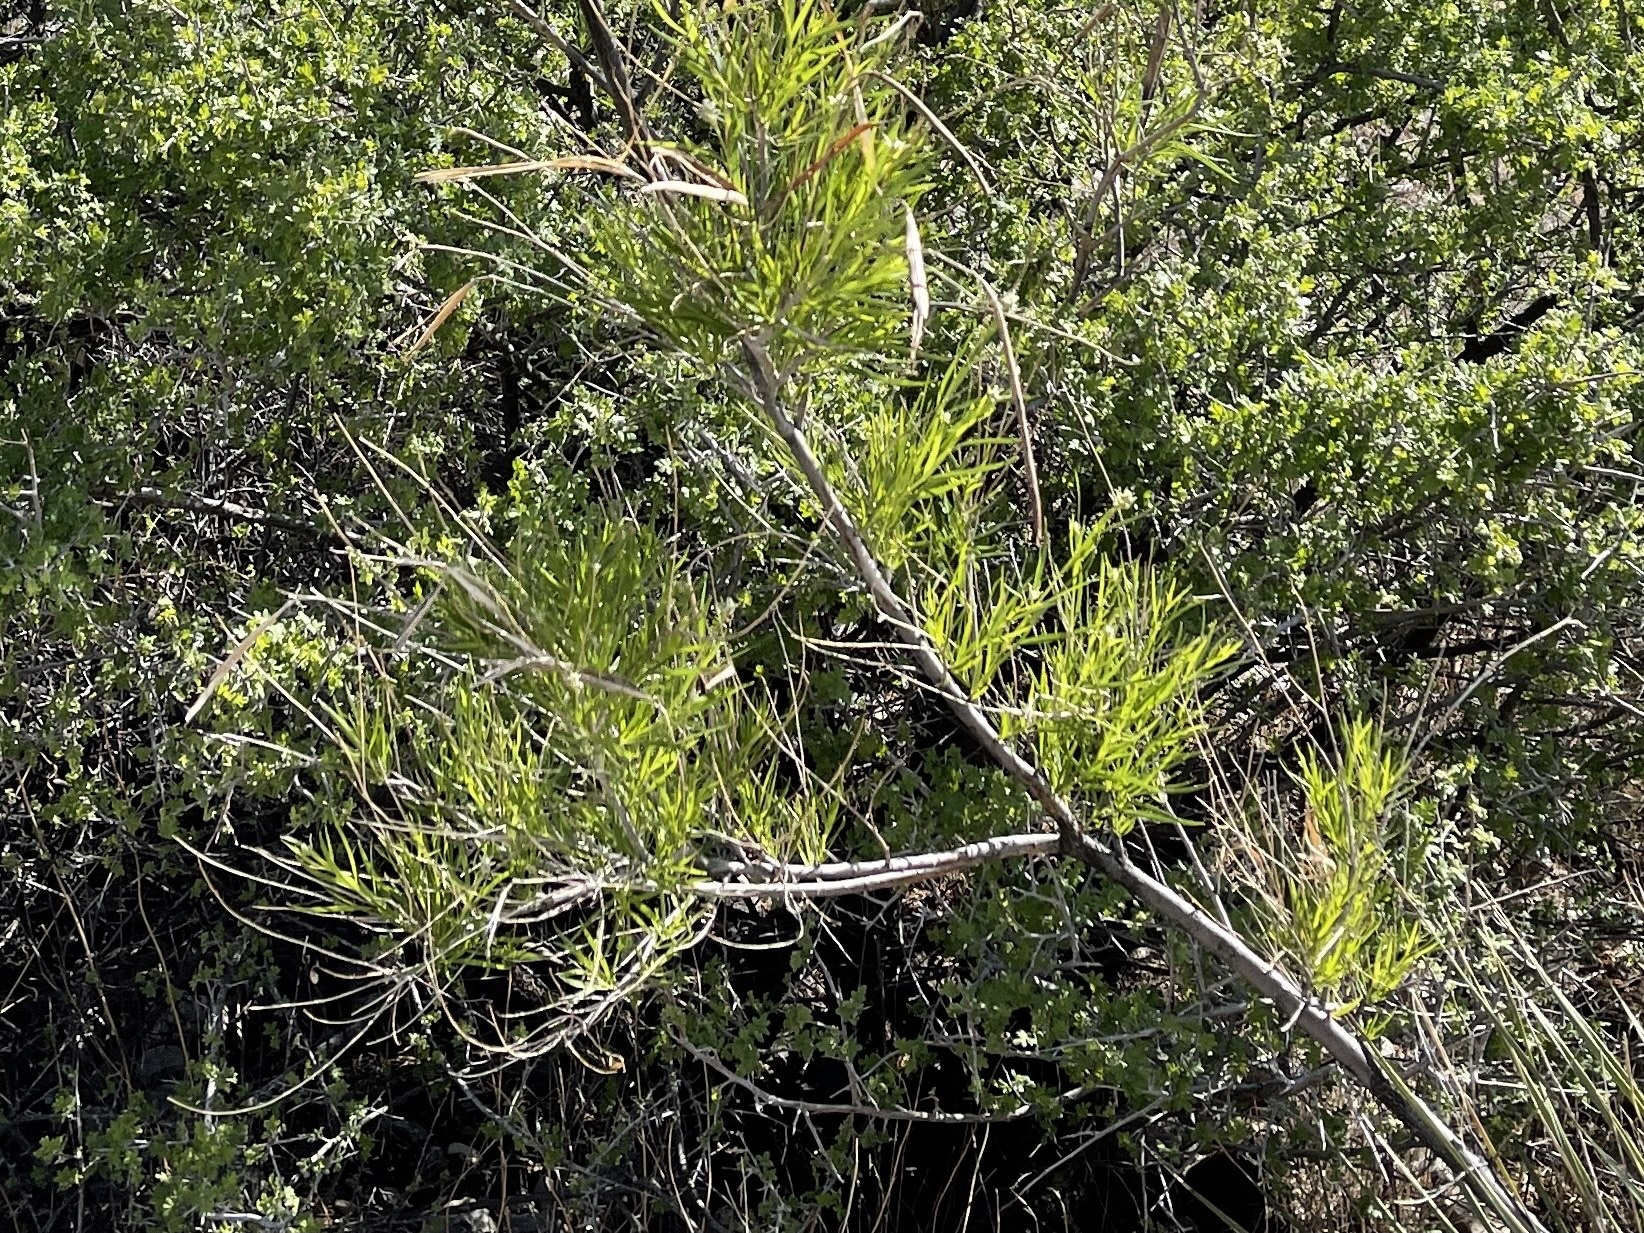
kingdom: Plantae
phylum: Tracheophyta
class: Magnoliopsida
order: Lamiales
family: Bignoniaceae
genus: Chilopsis
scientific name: Chilopsis linearis
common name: Desert-willow
